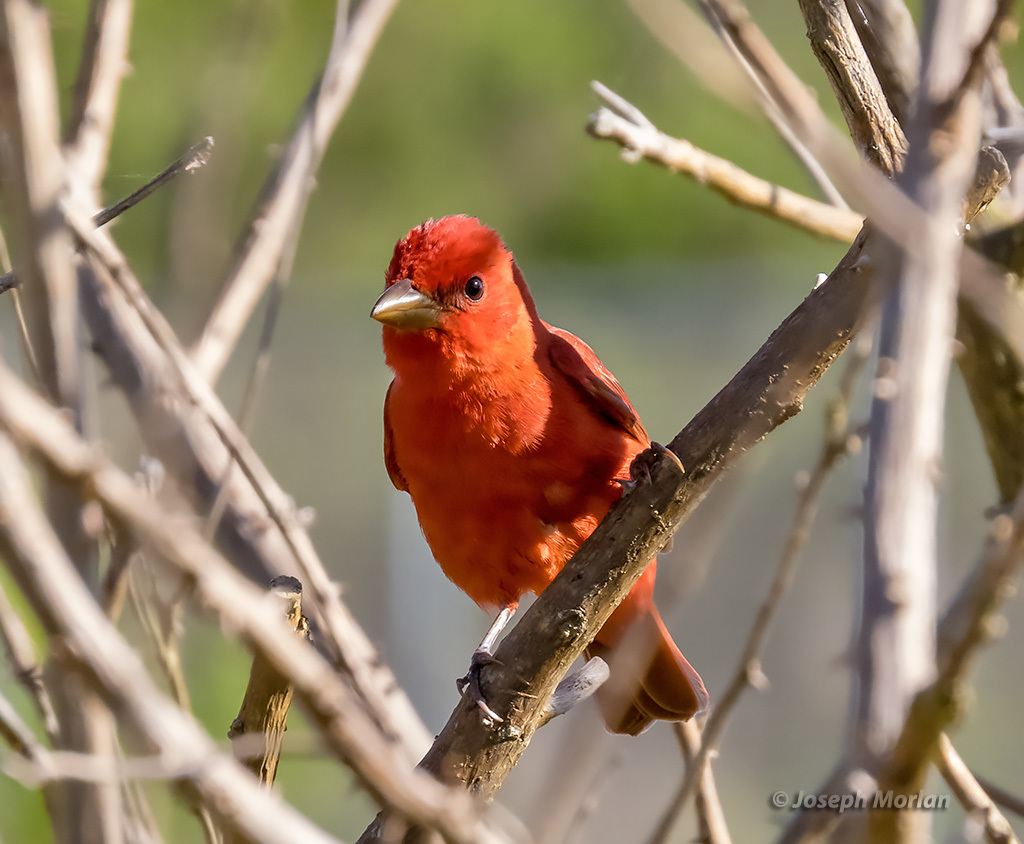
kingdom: Animalia
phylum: Chordata
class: Aves
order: Passeriformes
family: Cardinalidae
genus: Piranga
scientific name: Piranga rubra
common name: Summer tanager
